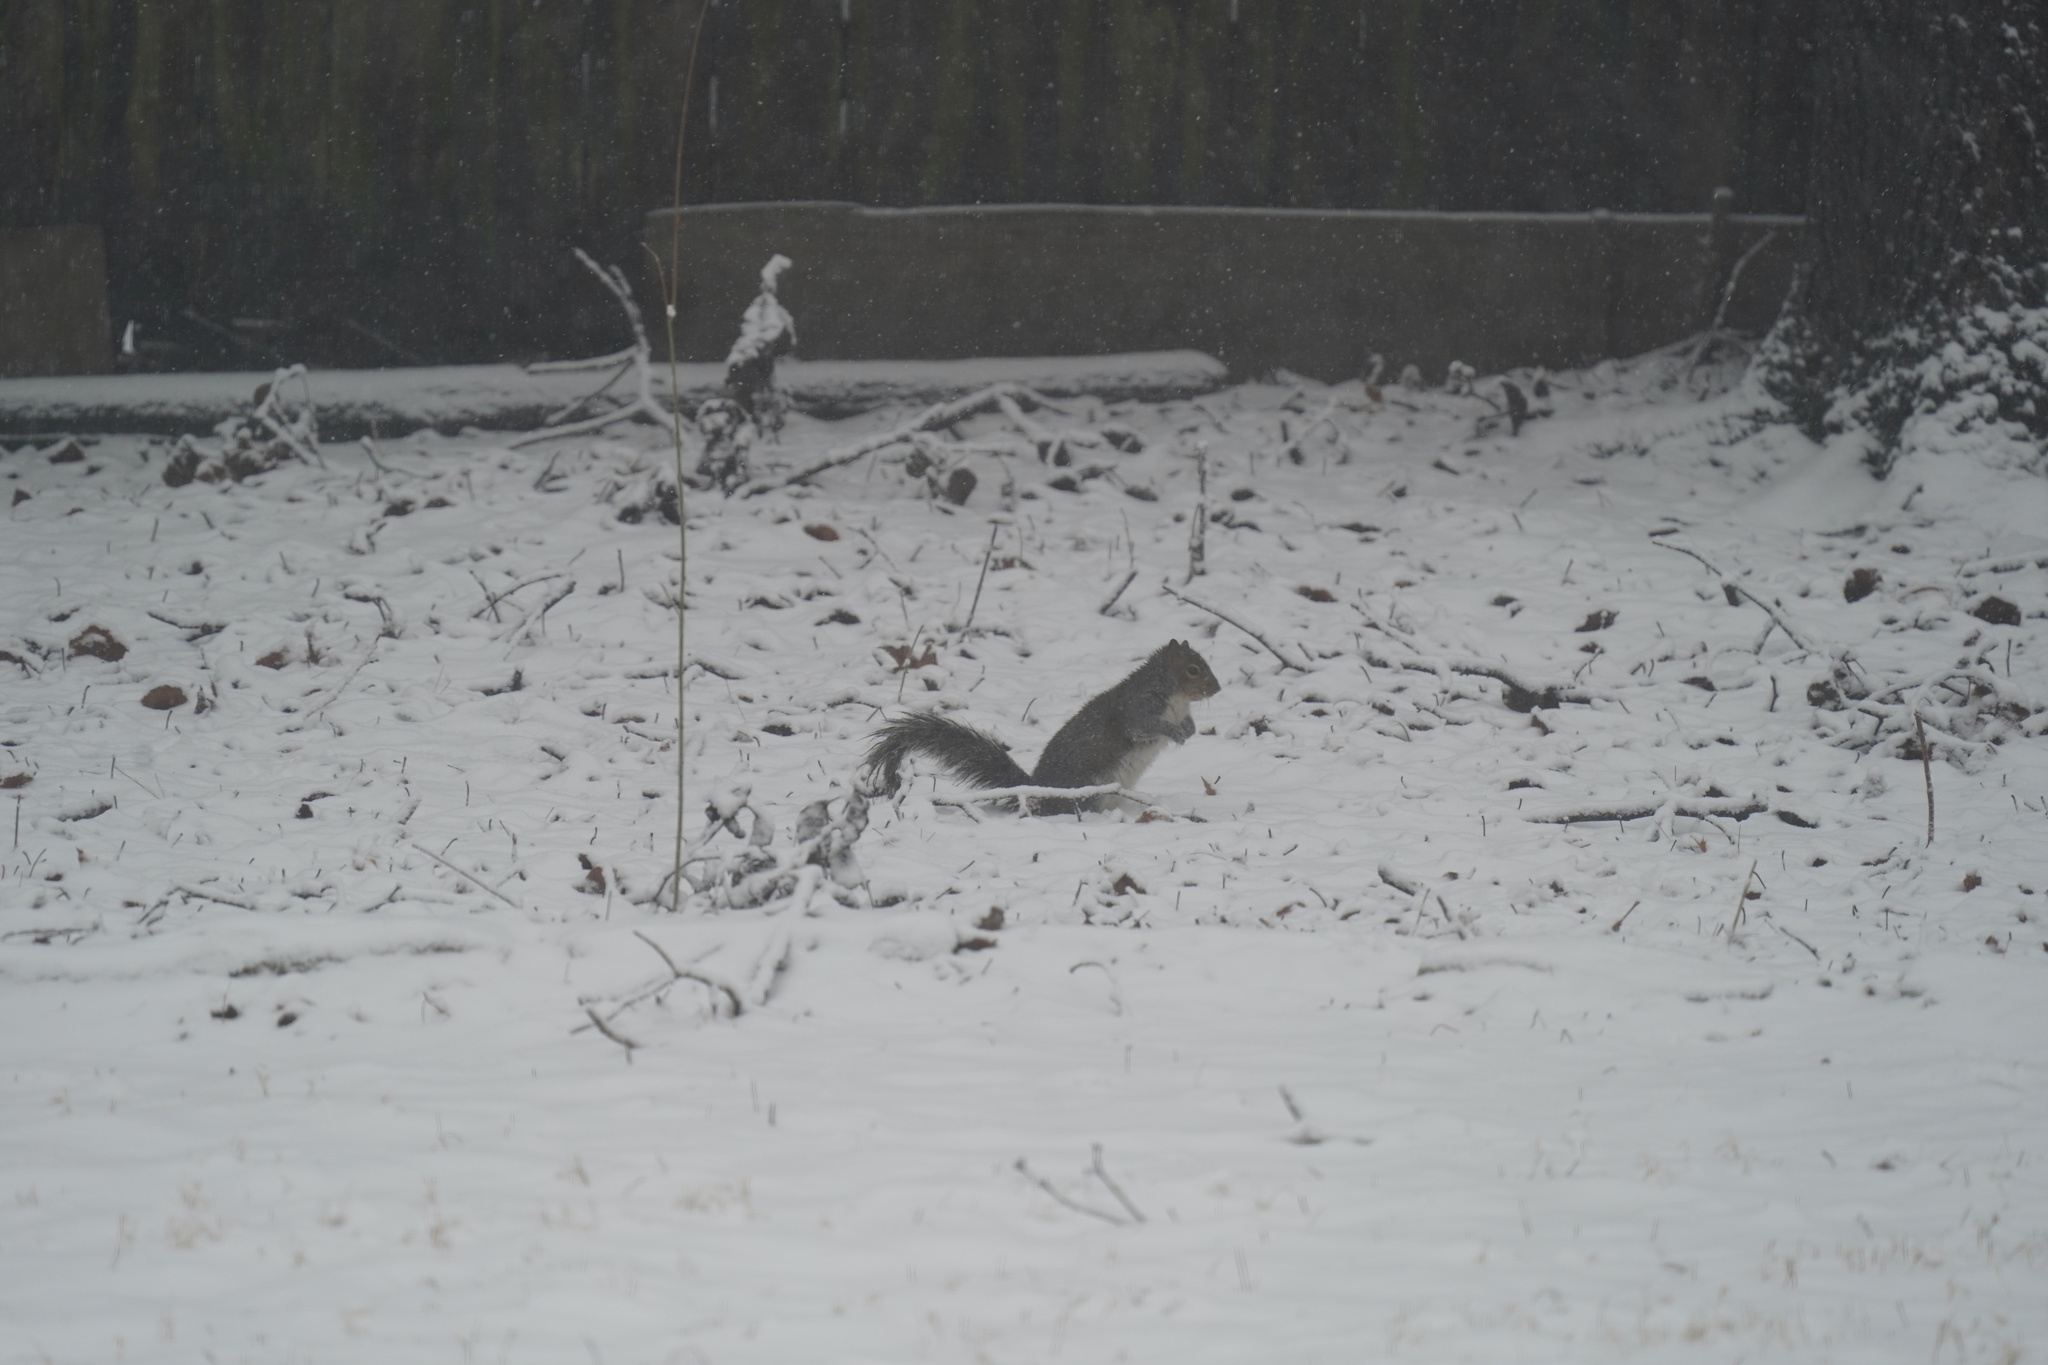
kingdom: Animalia
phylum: Chordata
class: Mammalia
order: Rodentia
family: Sciuridae
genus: Sciurus
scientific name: Sciurus carolinensis
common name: Eastern gray squirrel
